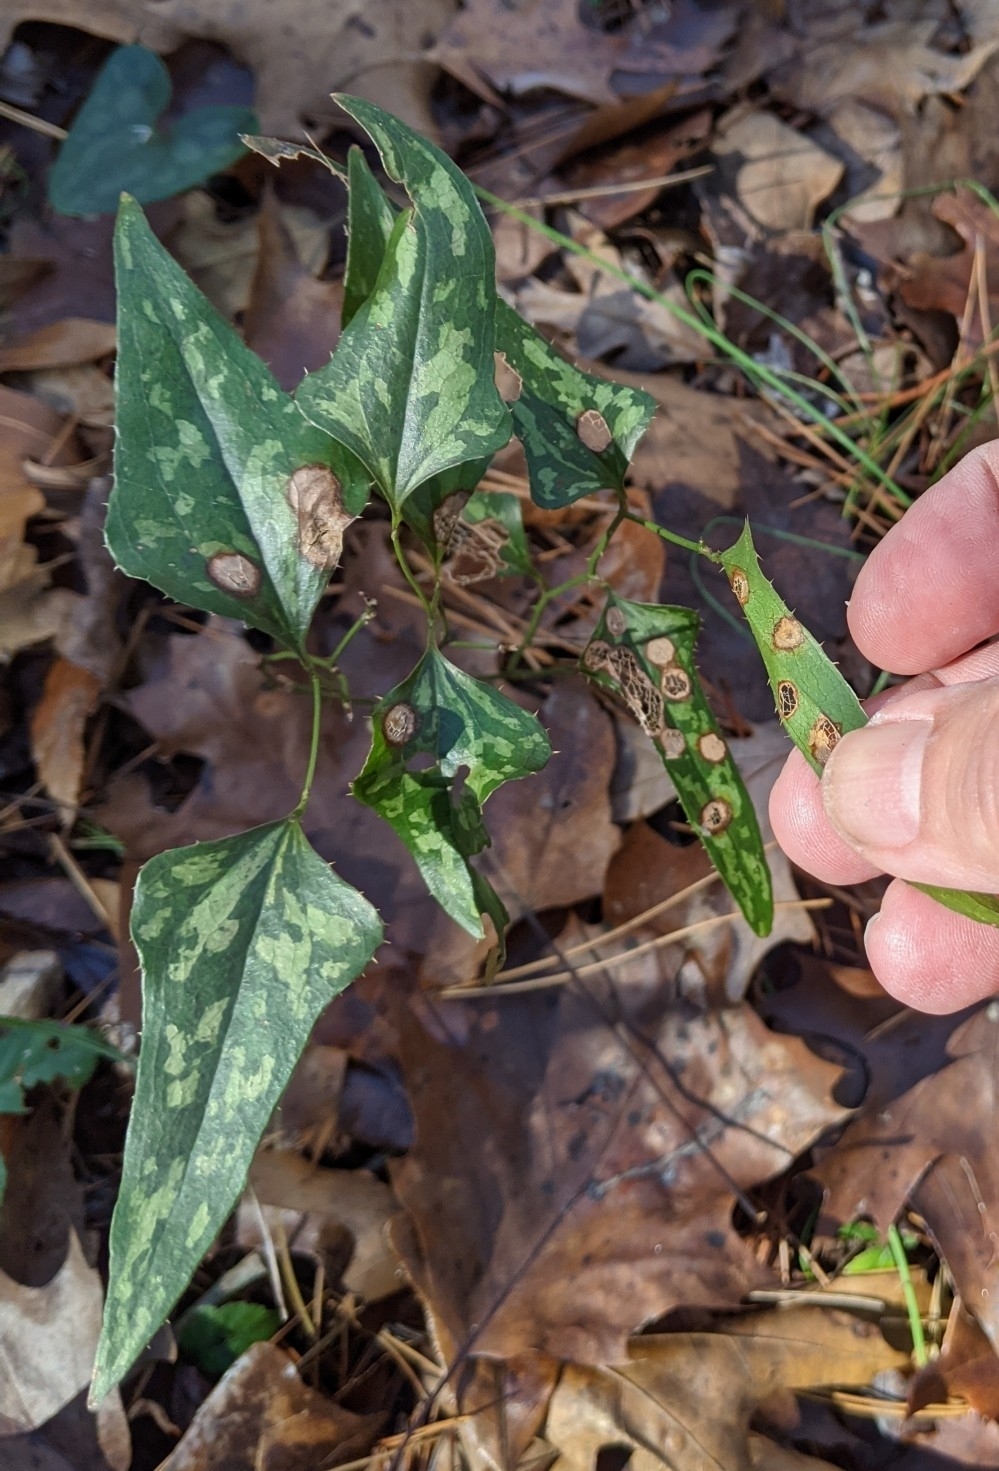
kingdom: Plantae
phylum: Tracheophyta
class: Liliopsida
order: Liliales
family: Smilacaceae
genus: Smilax
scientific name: Smilax bona-nox
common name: Catbrier
